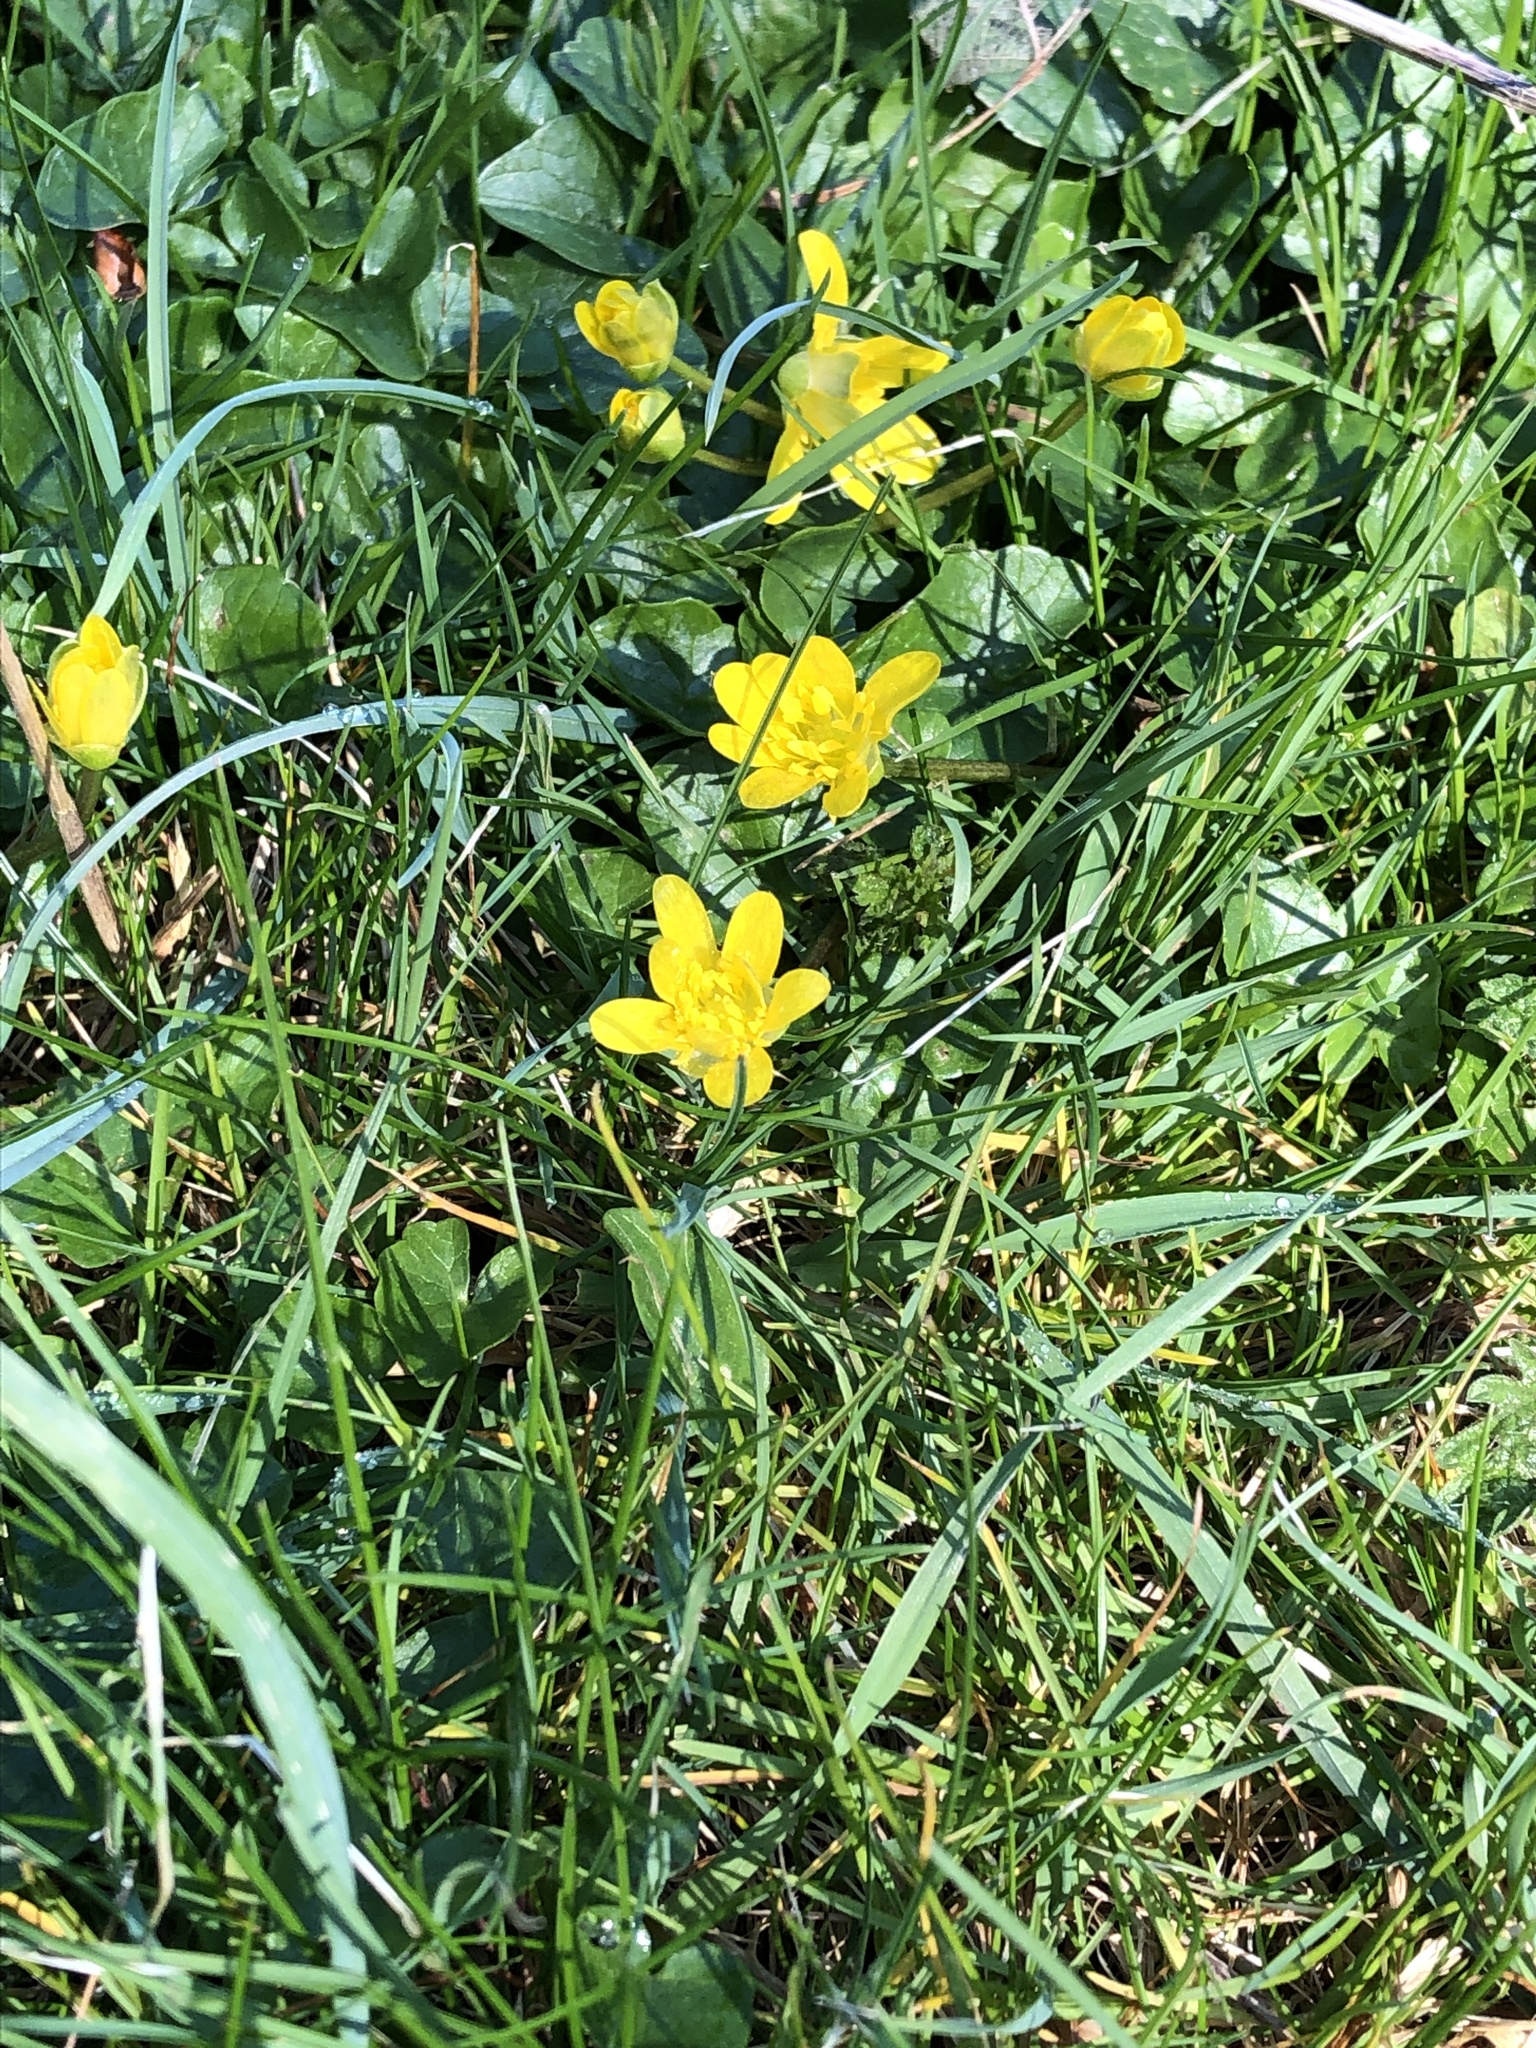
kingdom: Plantae
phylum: Tracheophyta
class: Magnoliopsida
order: Ranunculales
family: Ranunculaceae
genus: Ficaria
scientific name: Ficaria verna
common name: Lesser celandine
